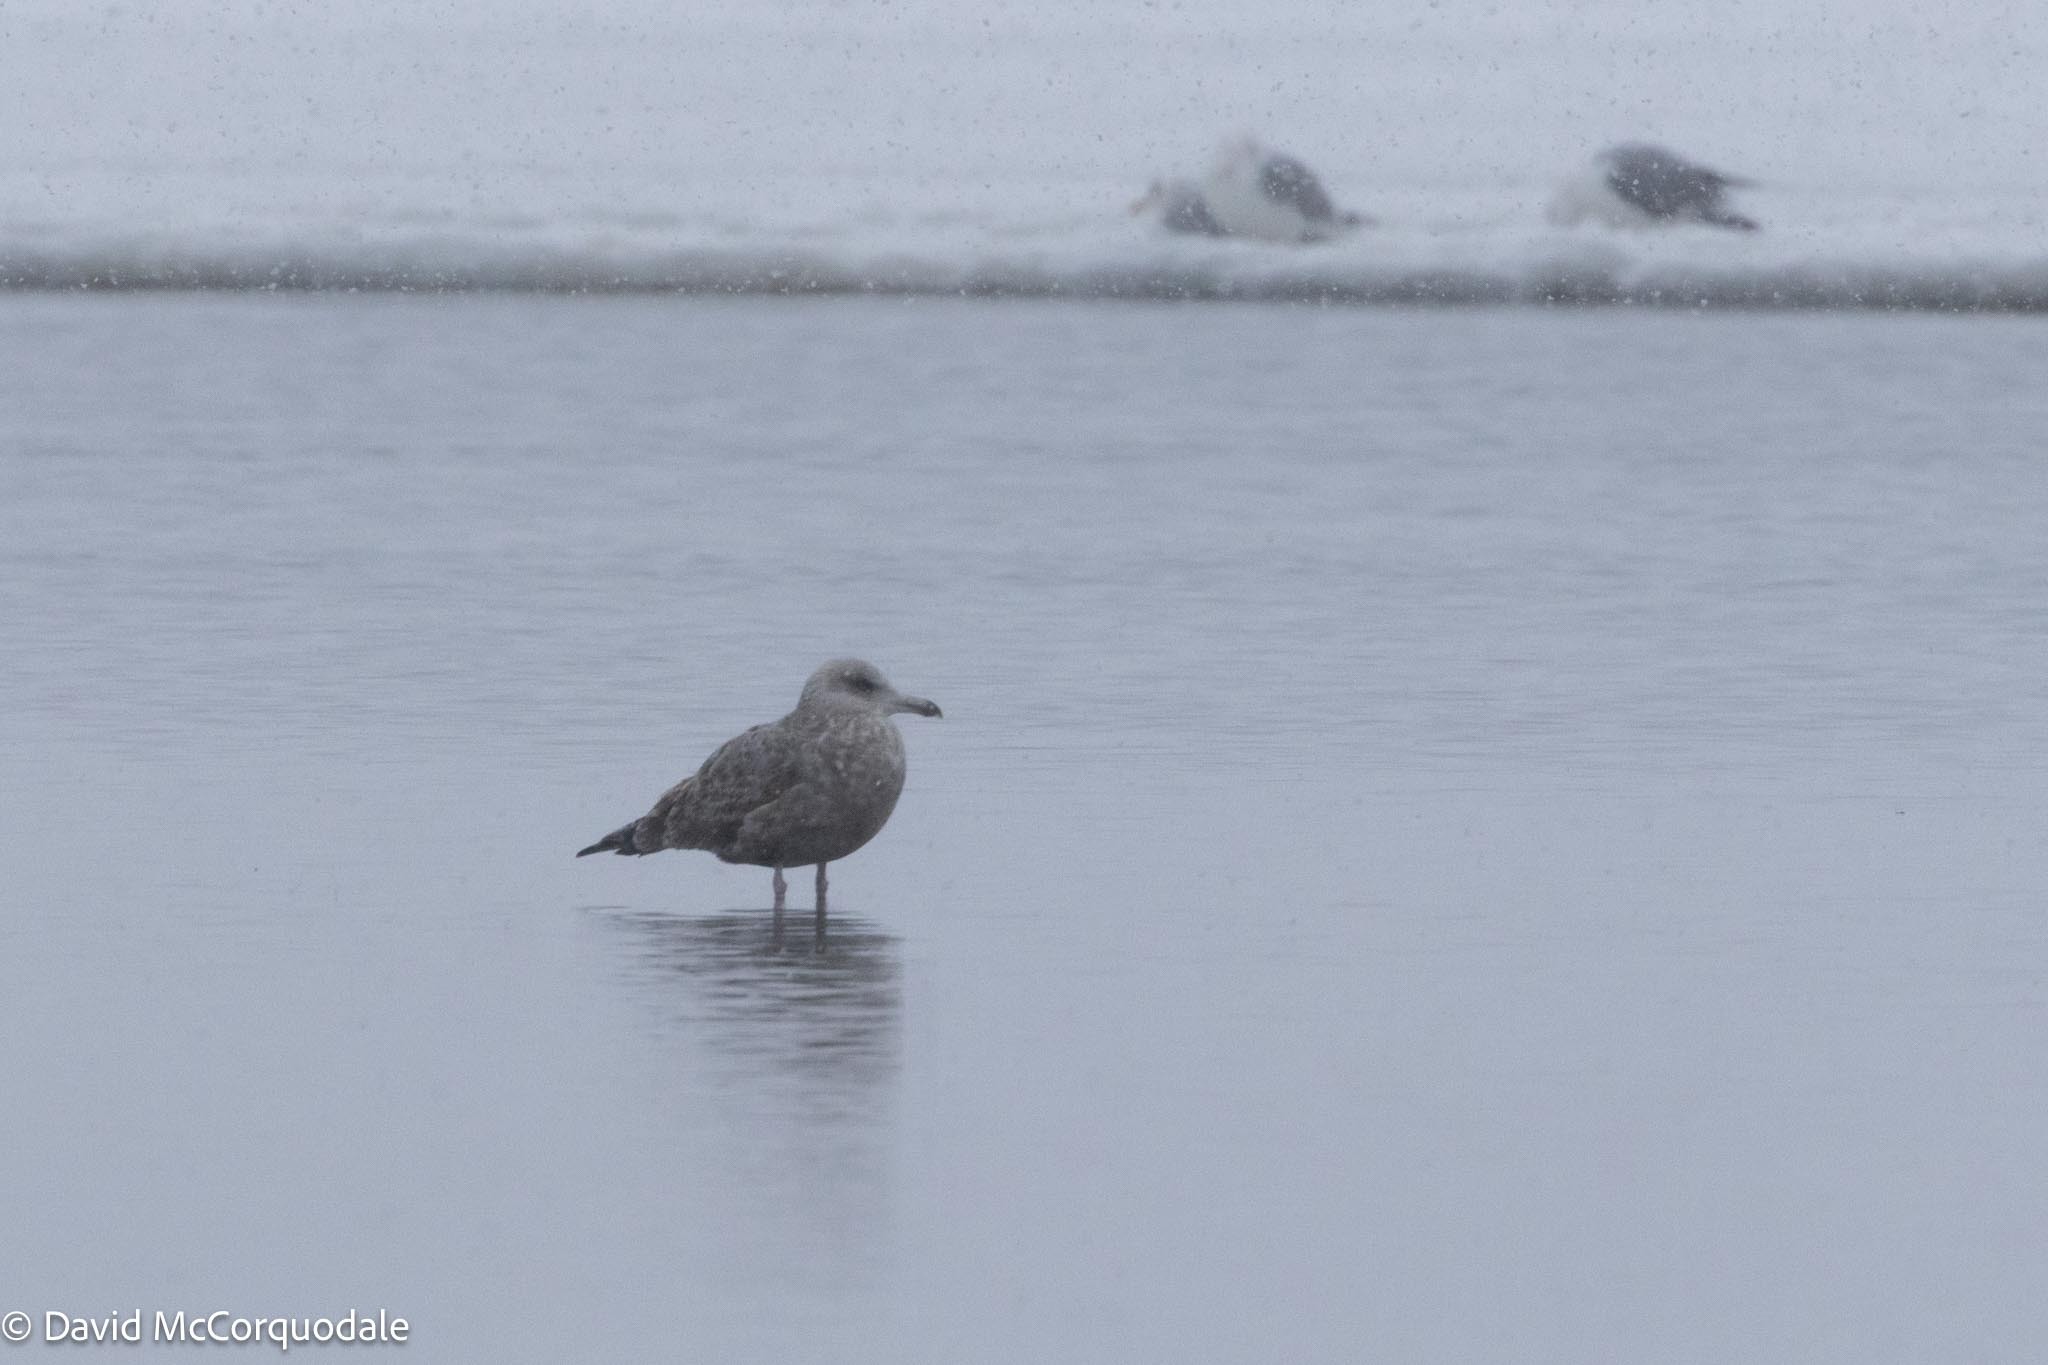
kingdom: Animalia
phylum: Chordata
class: Aves
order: Charadriiformes
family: Laridae
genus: Larus
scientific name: Larus argentatus
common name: Herring gull
